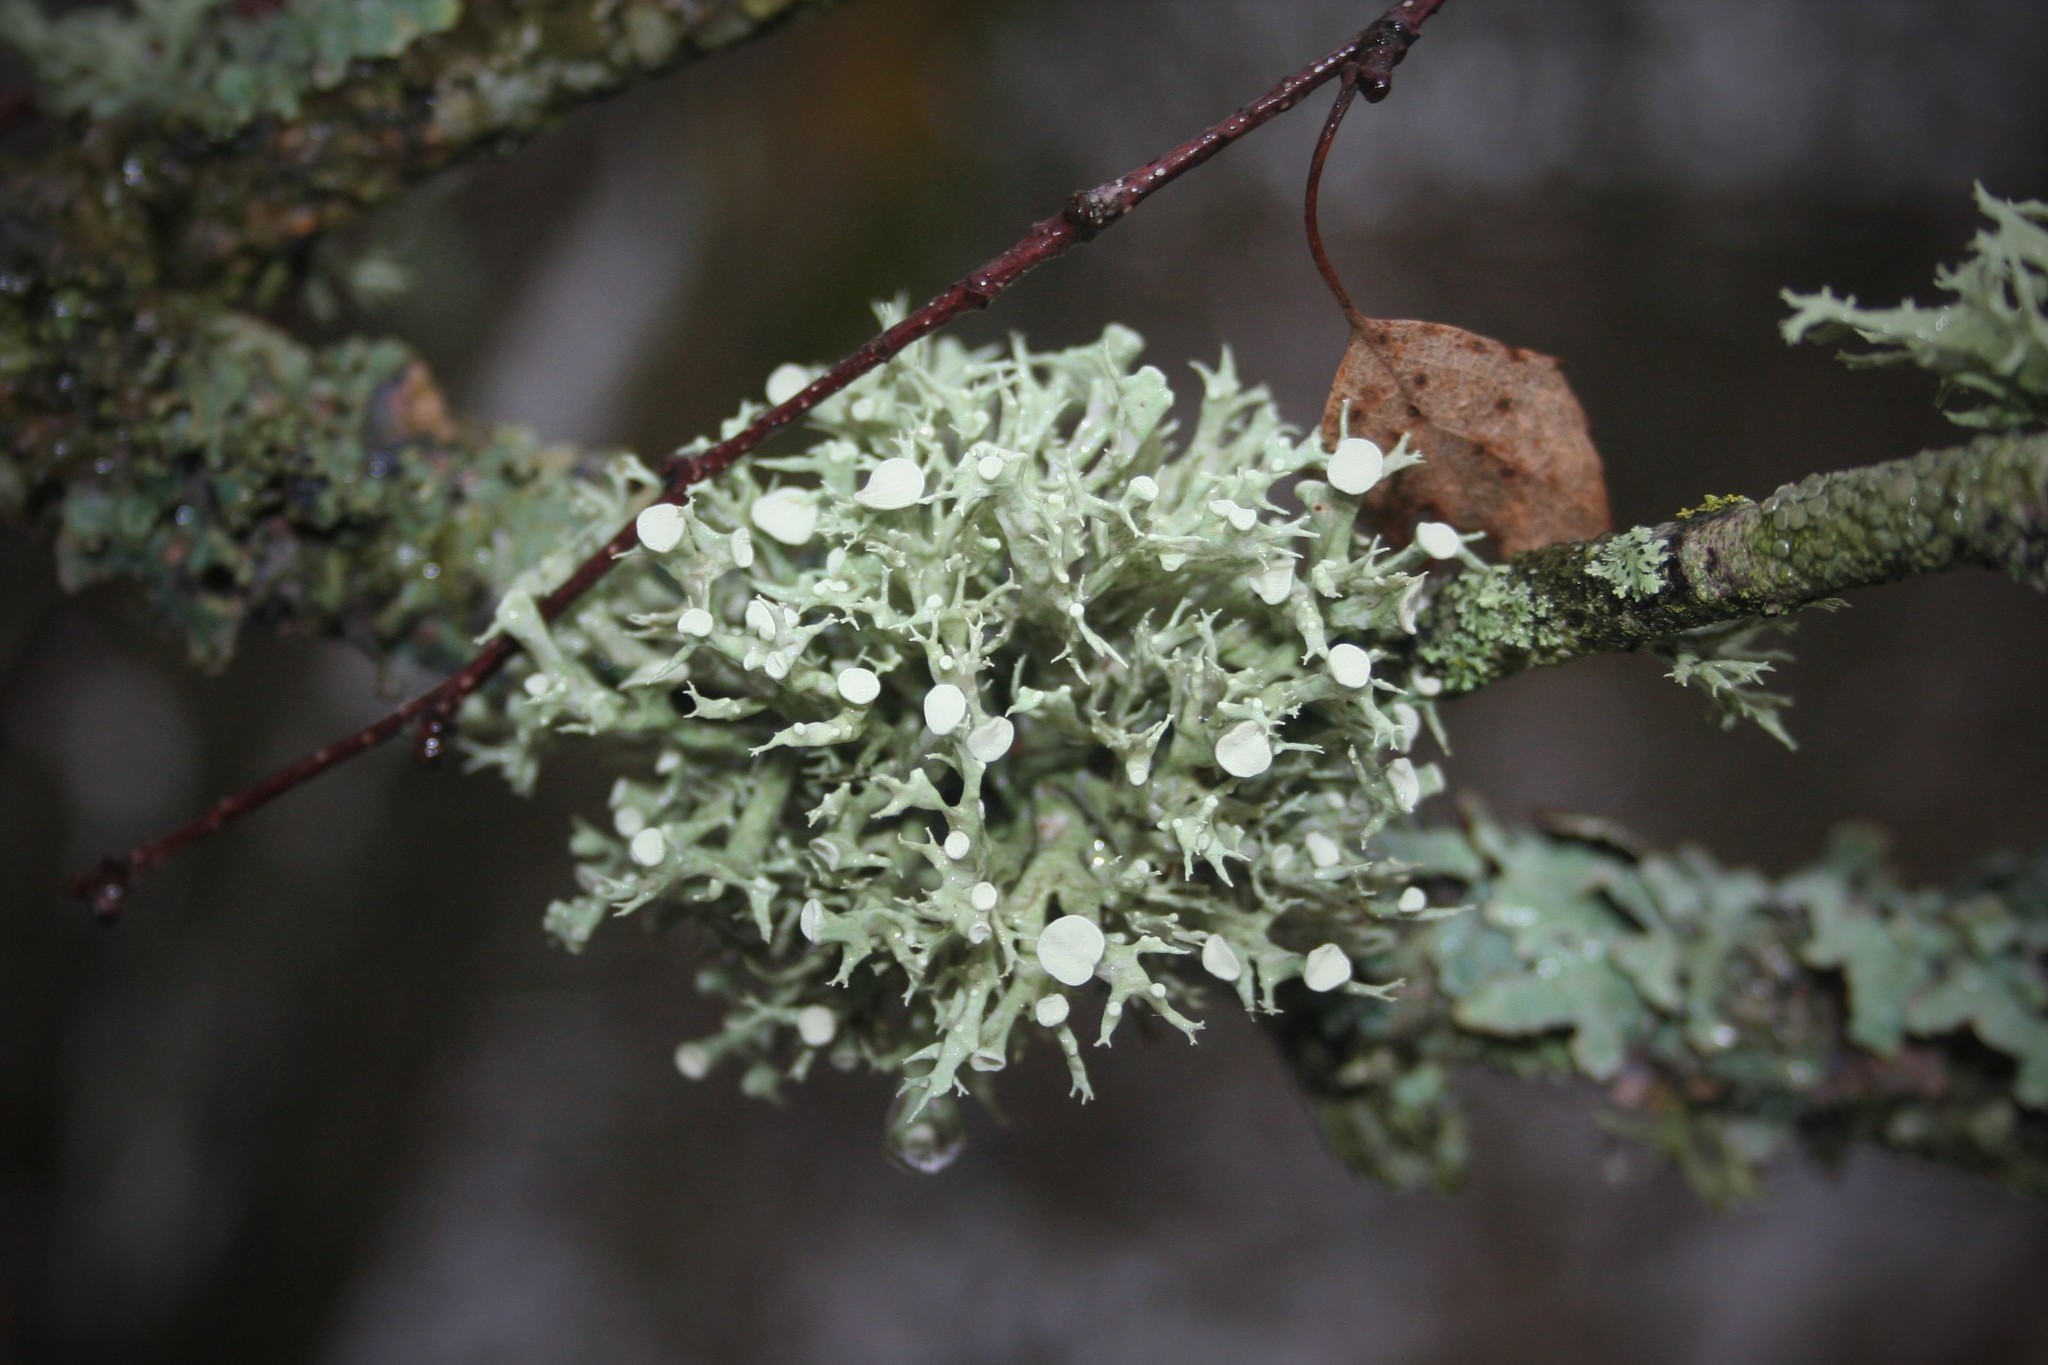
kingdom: Fungi
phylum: Ascomycota
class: Lecanoromycetes
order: Lecanorales
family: Ramalinaceae
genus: Ramalina
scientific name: Ramalina fastigiata
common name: Dotted ribbon lichen
